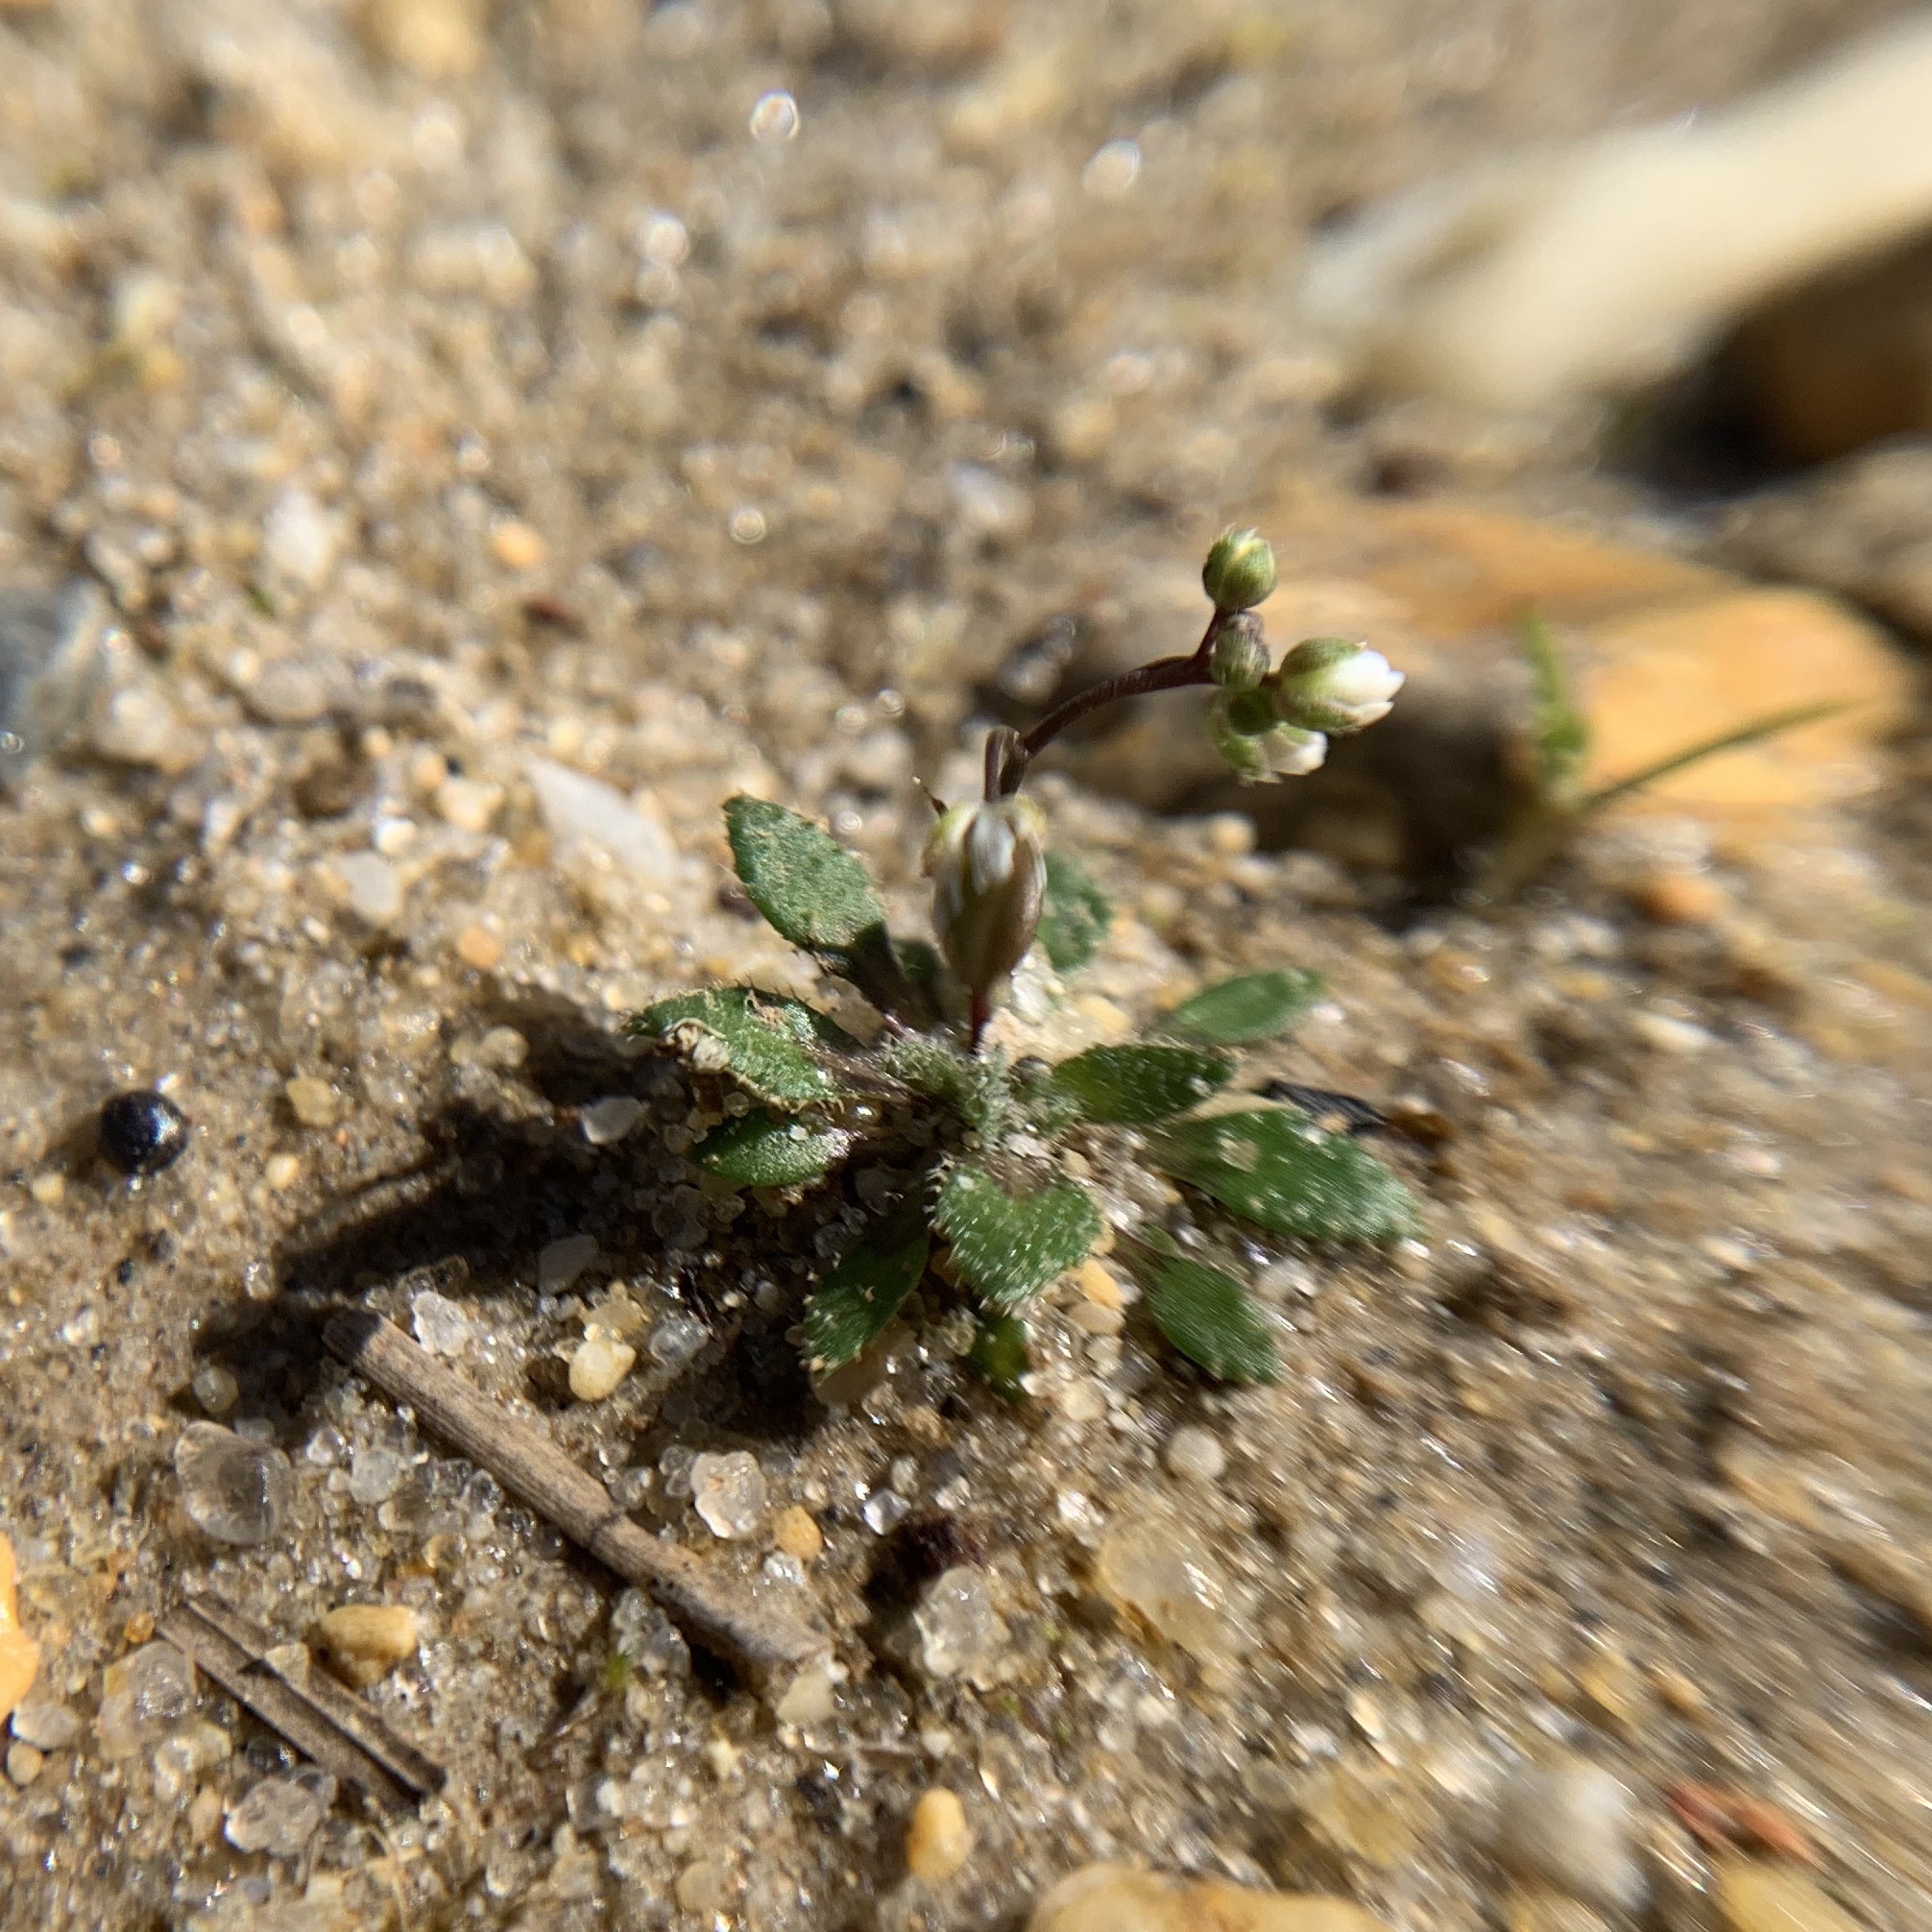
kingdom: Plantae
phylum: Tracheophyta
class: Magnoliopsida
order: Brassicales
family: Brassicaceae
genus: Draba
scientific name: Draba verna
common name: Spring draba
